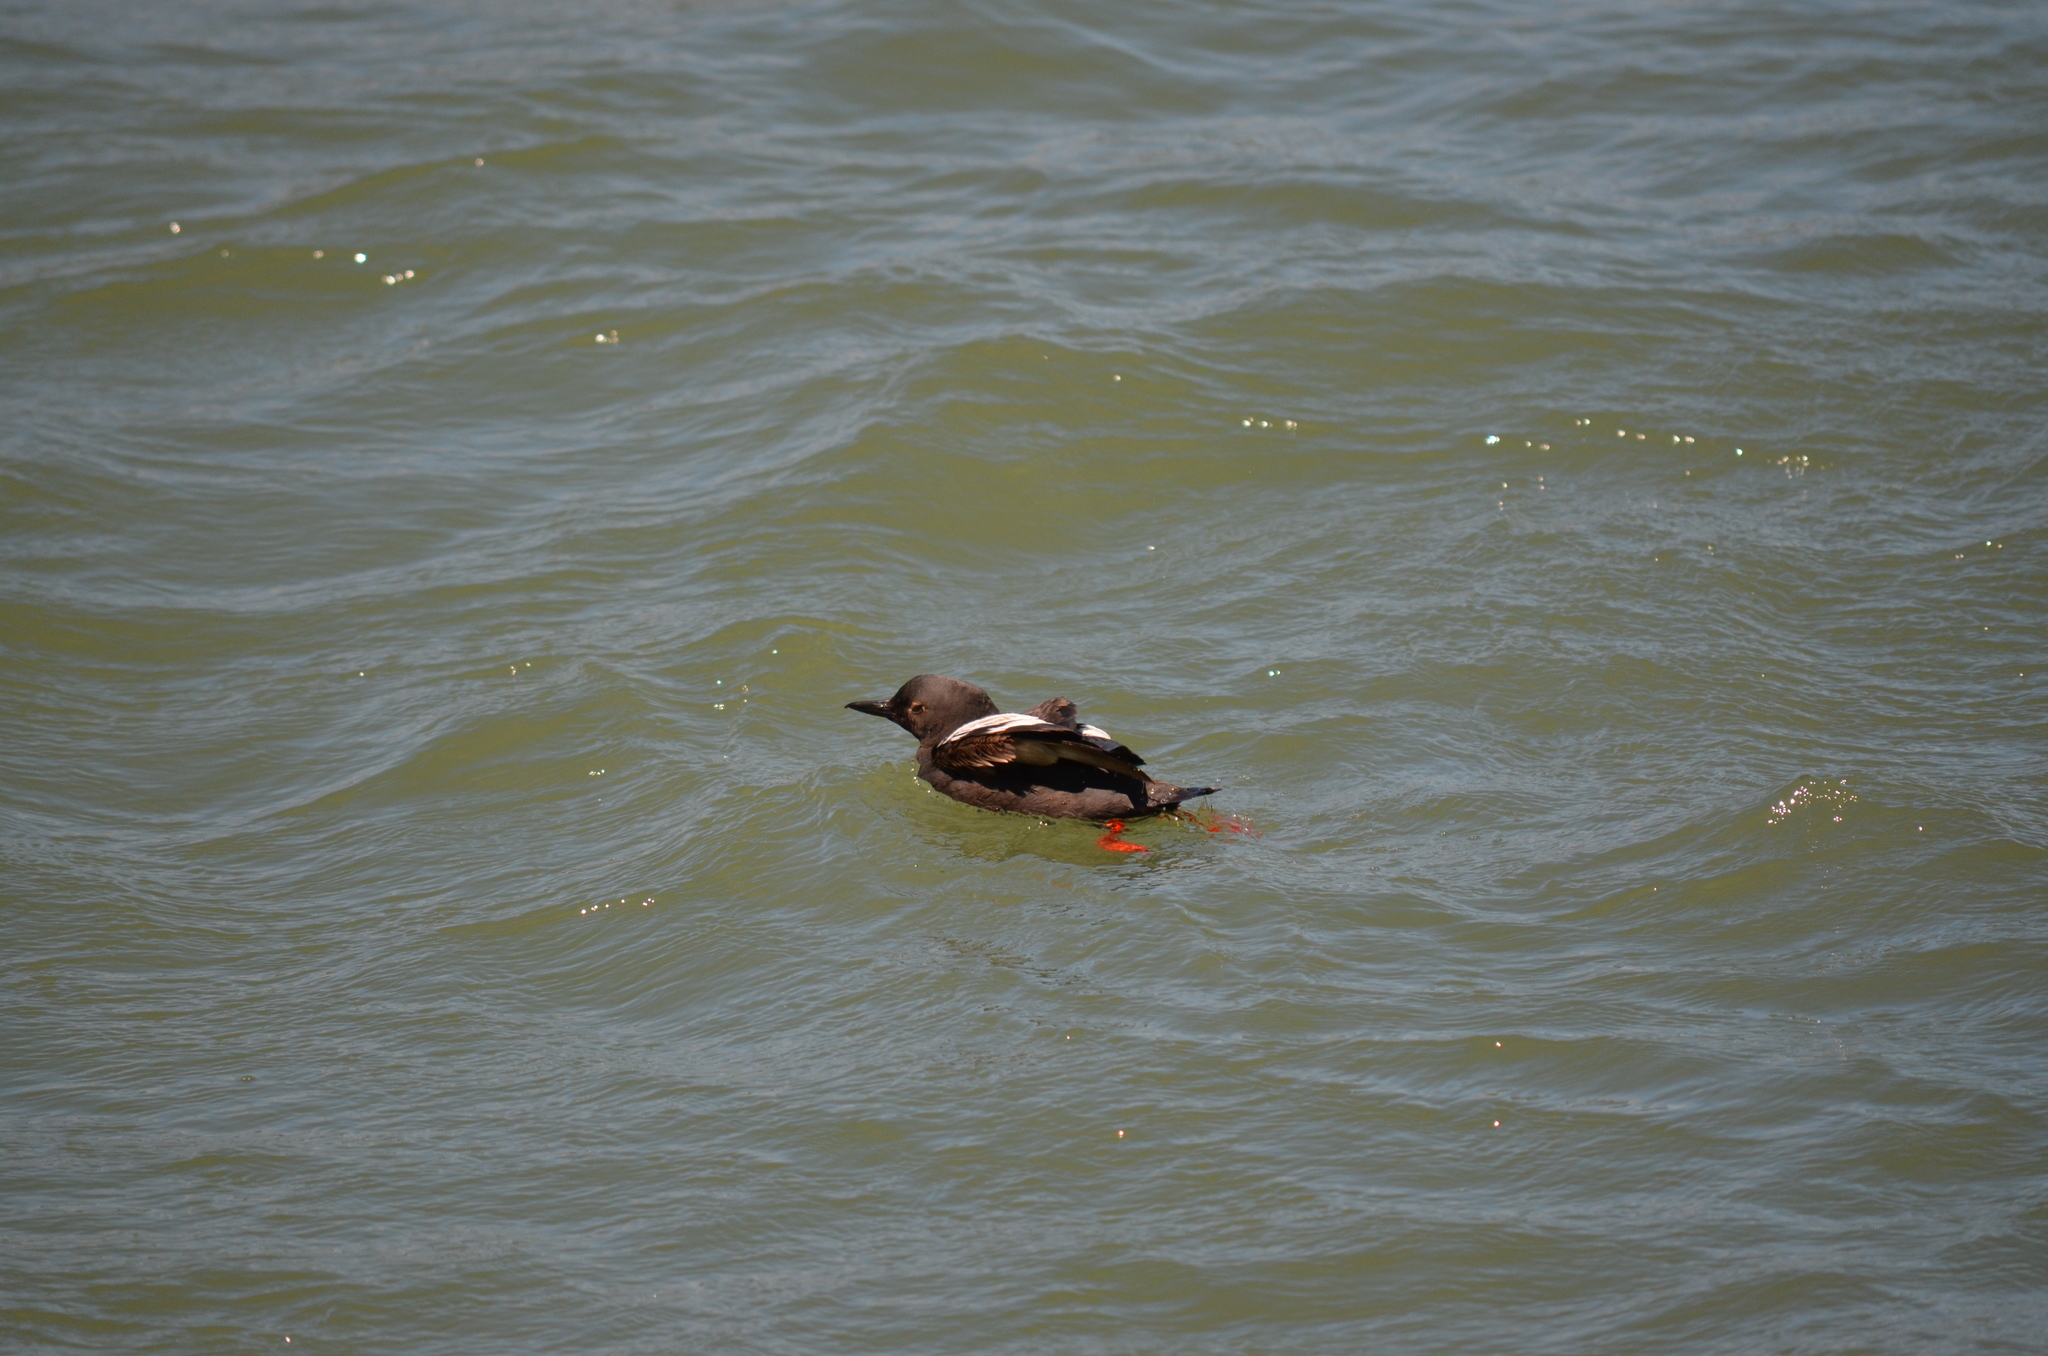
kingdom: Animalia
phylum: Chordata
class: Aves
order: Charadriiformes
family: Alcidae
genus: Cepphus
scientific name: Cepphus columba
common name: Pigeon guillemot
